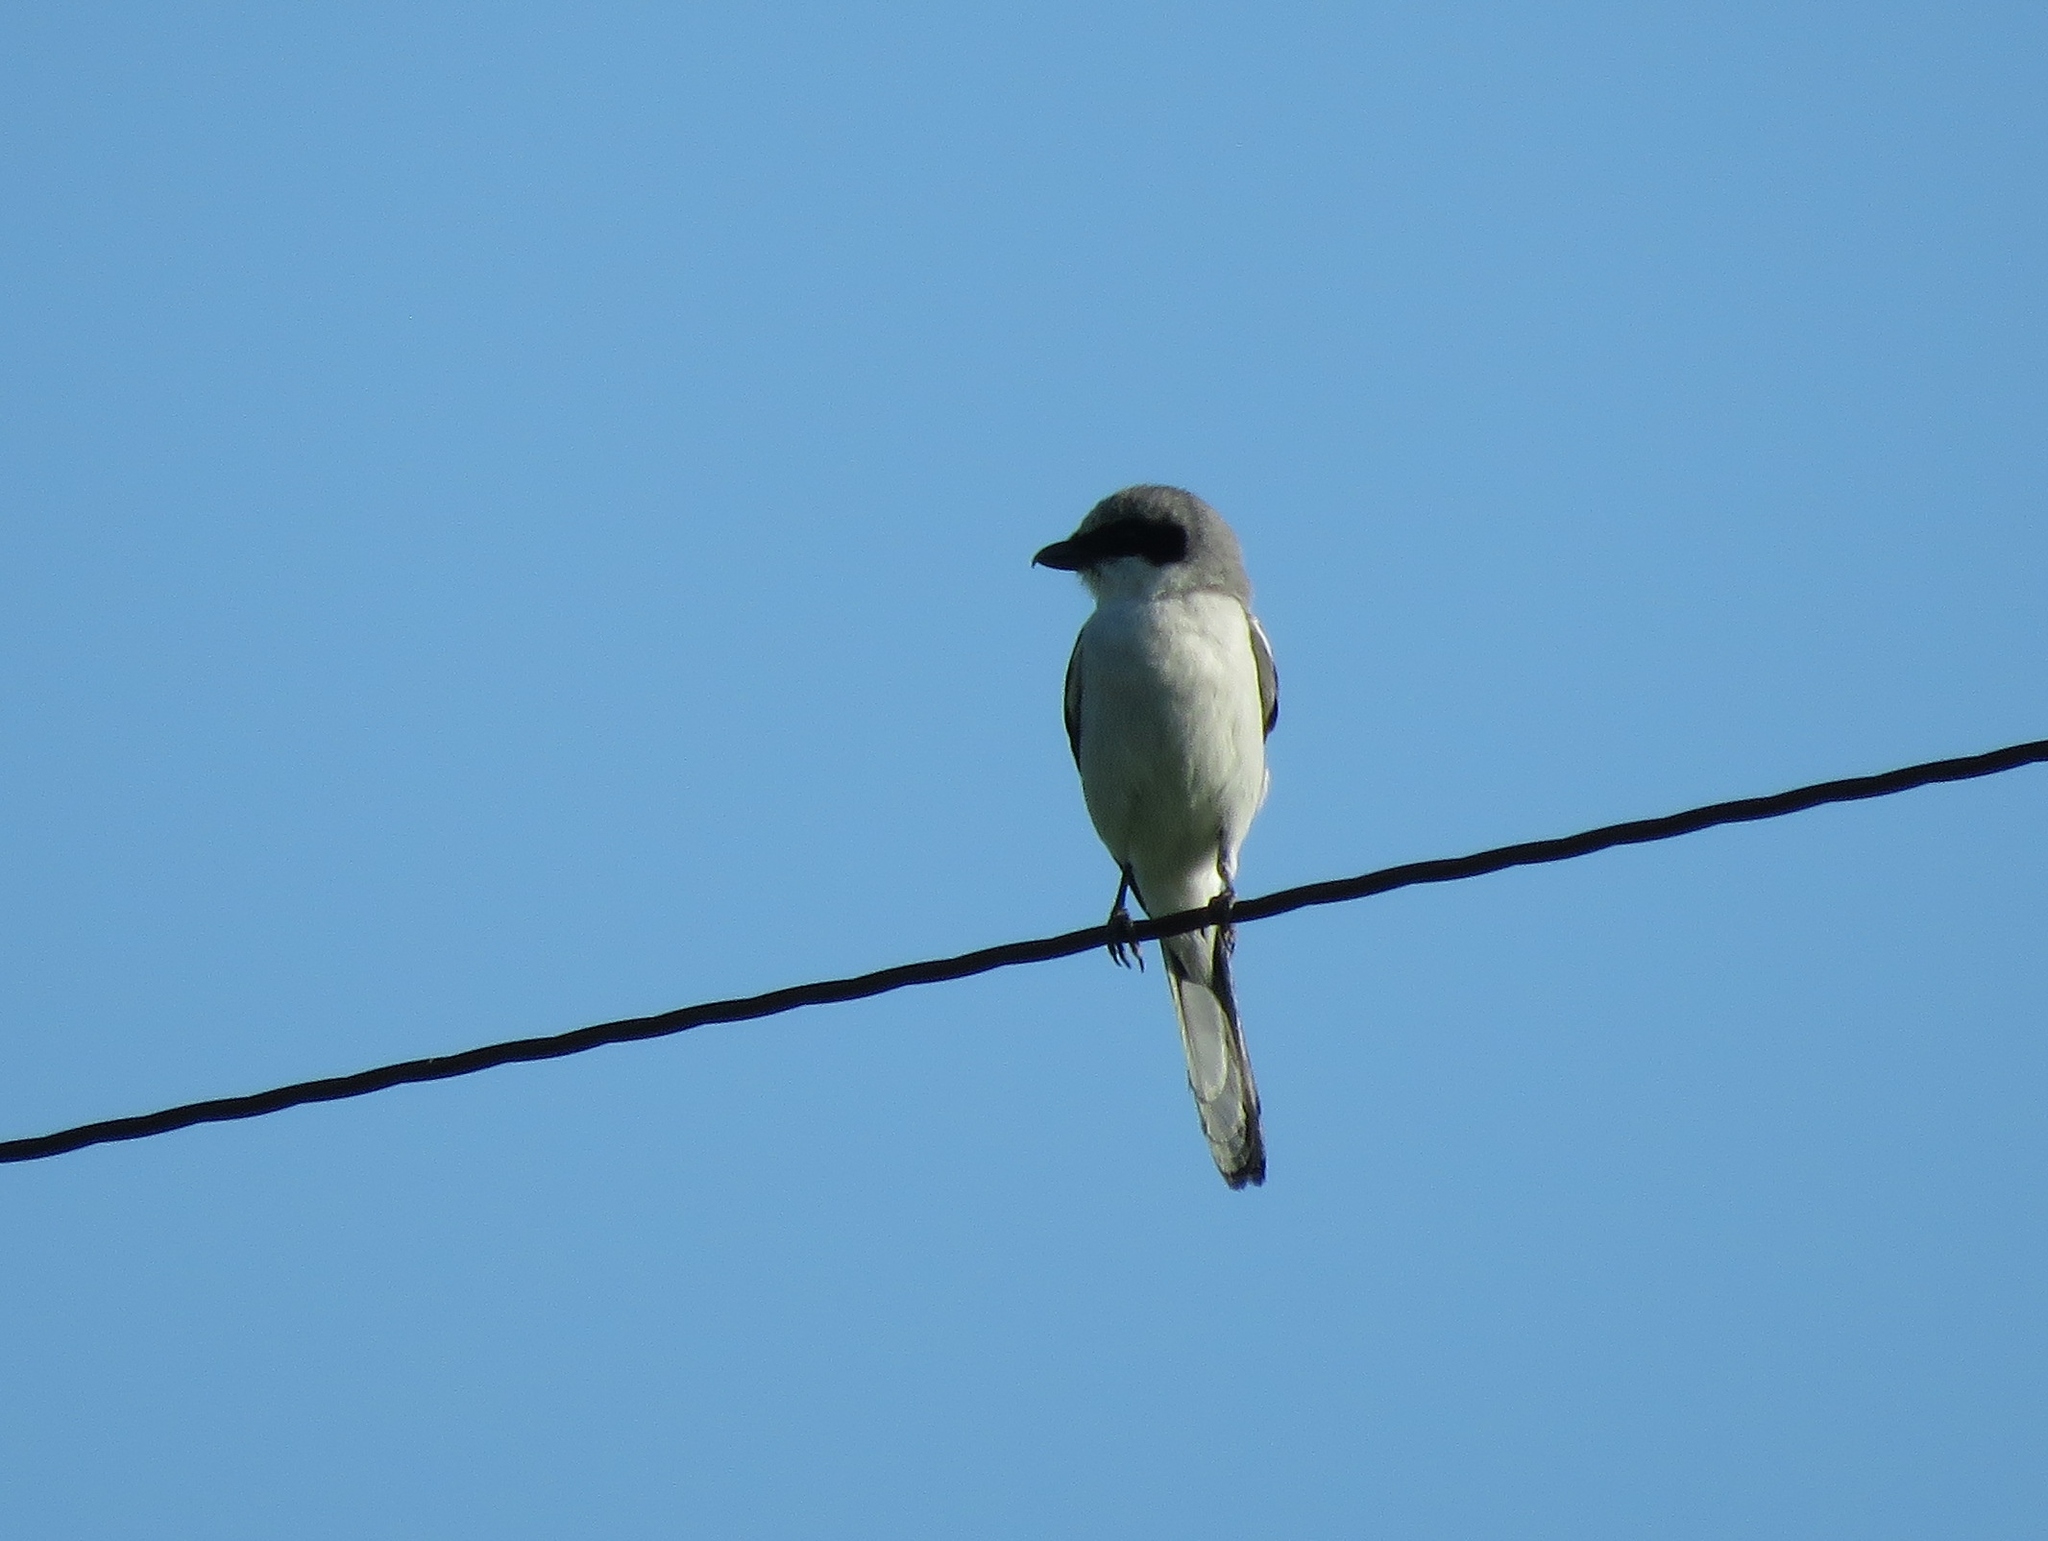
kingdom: Animalia
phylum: Chordata
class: Aves
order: Passeriformes
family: Laniidae
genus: Lanius
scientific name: Lanius ludovicianus
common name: Loggerhead shrike
